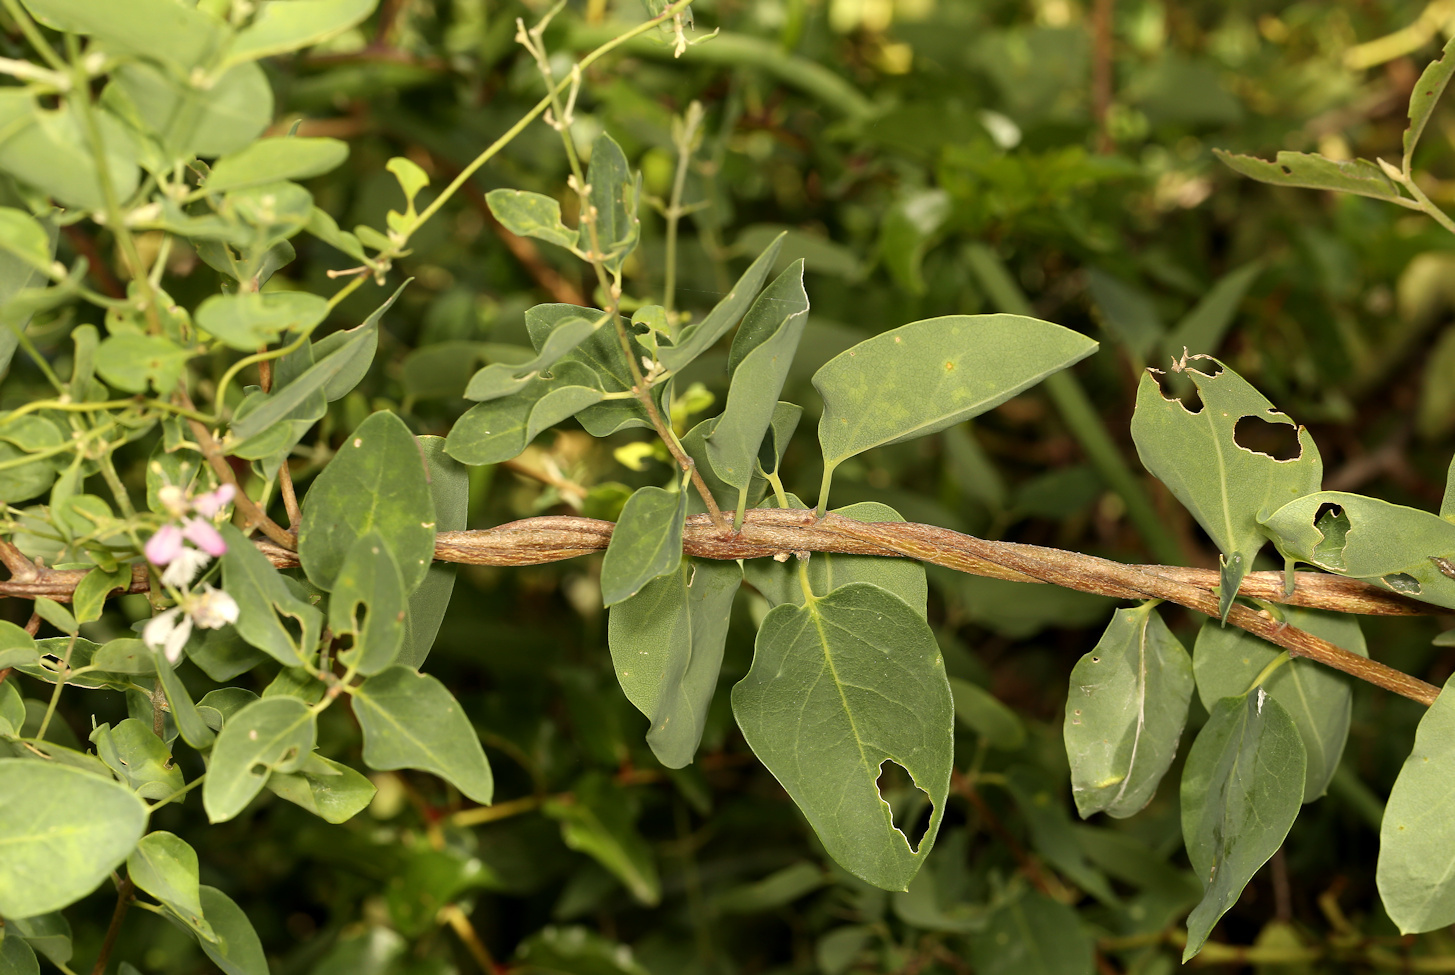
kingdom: Plantae
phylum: Tracheophyta
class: Magnoliopsida
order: Malpighiales
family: Malpighiaceae
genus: Triaspis
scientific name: Triaspis glaucophylla
